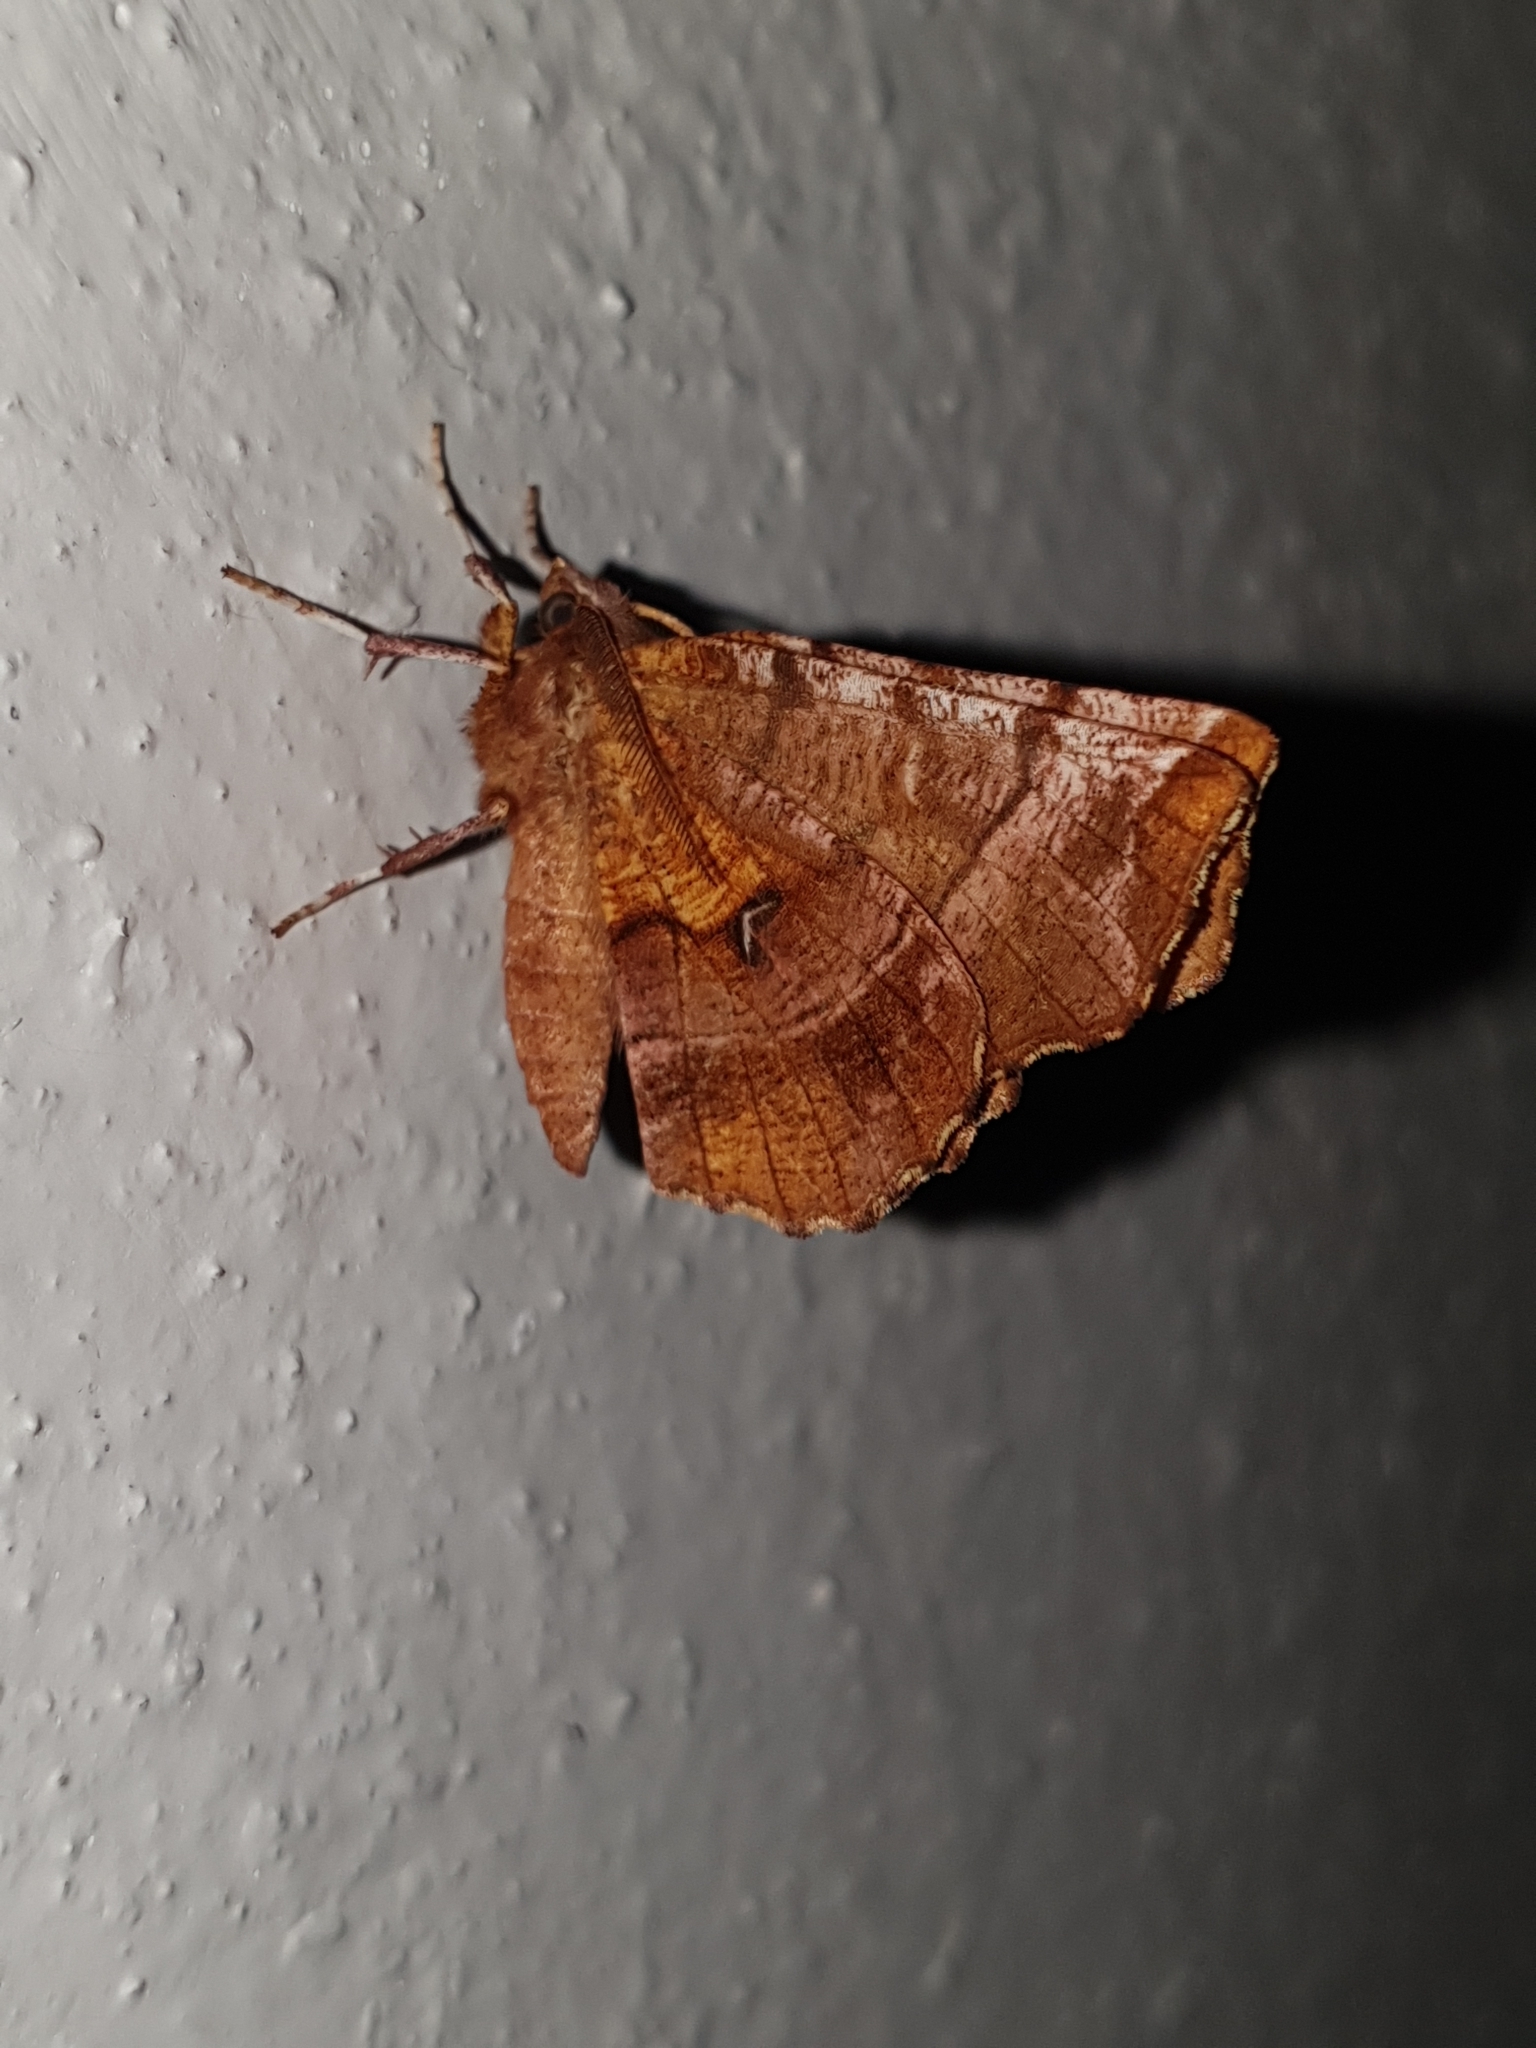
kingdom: Animalia
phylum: Arthropoda
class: Insecta
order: Lepidoptera
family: Geometridae
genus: Selenia
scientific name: Selenia tetralunaria
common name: Purple thorn
